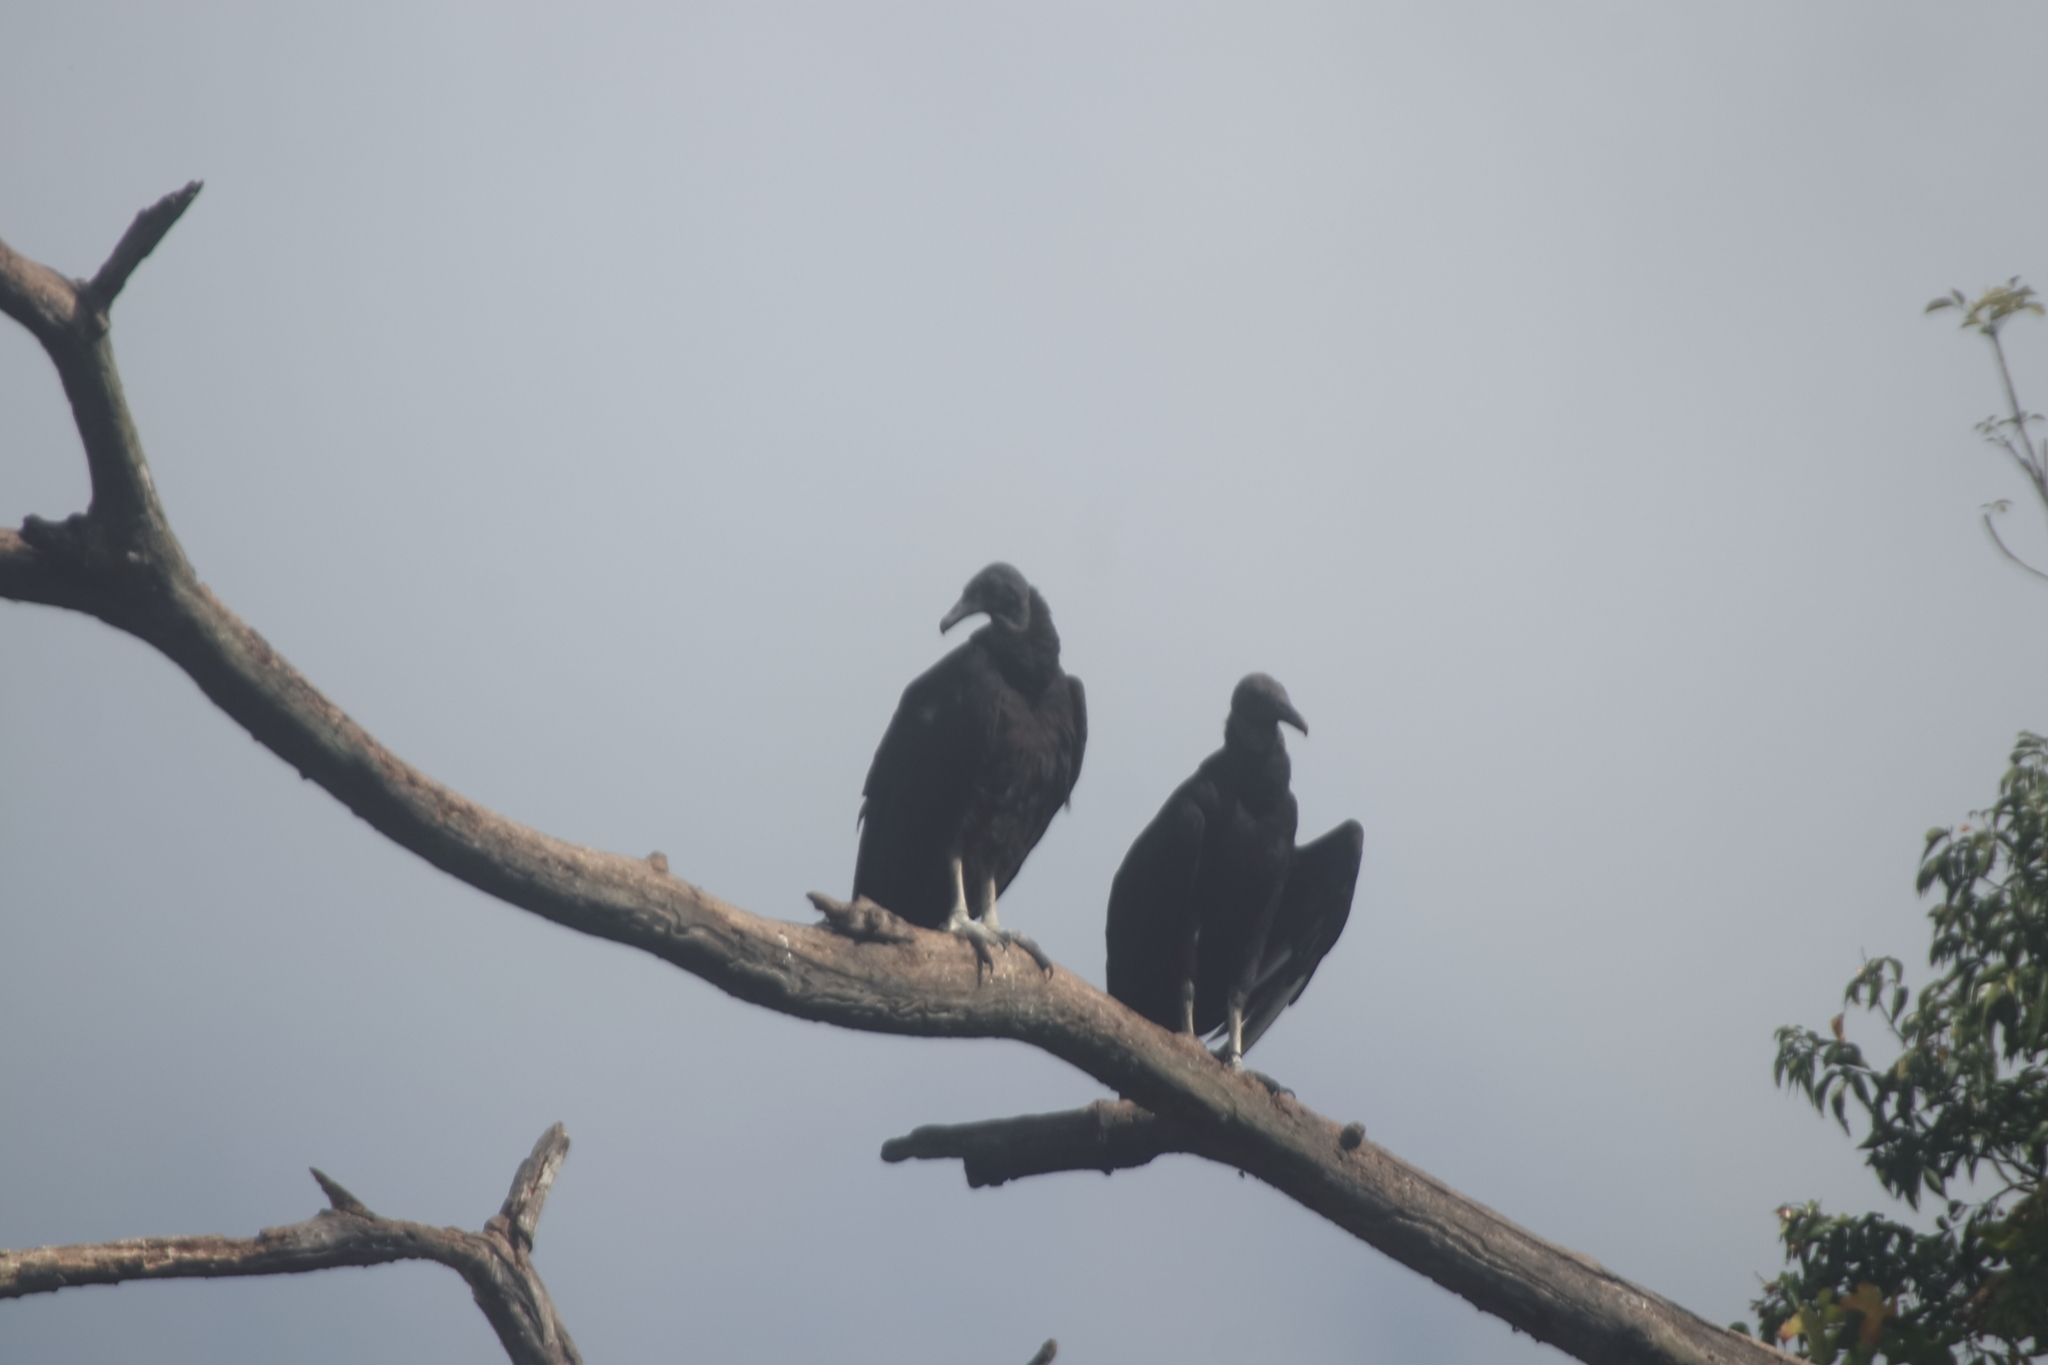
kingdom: Animalia
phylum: Chordata
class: Aves
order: Accipitriformes
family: Cathartidae
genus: Coragyps
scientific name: Coragyps atratus
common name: Black vulture
